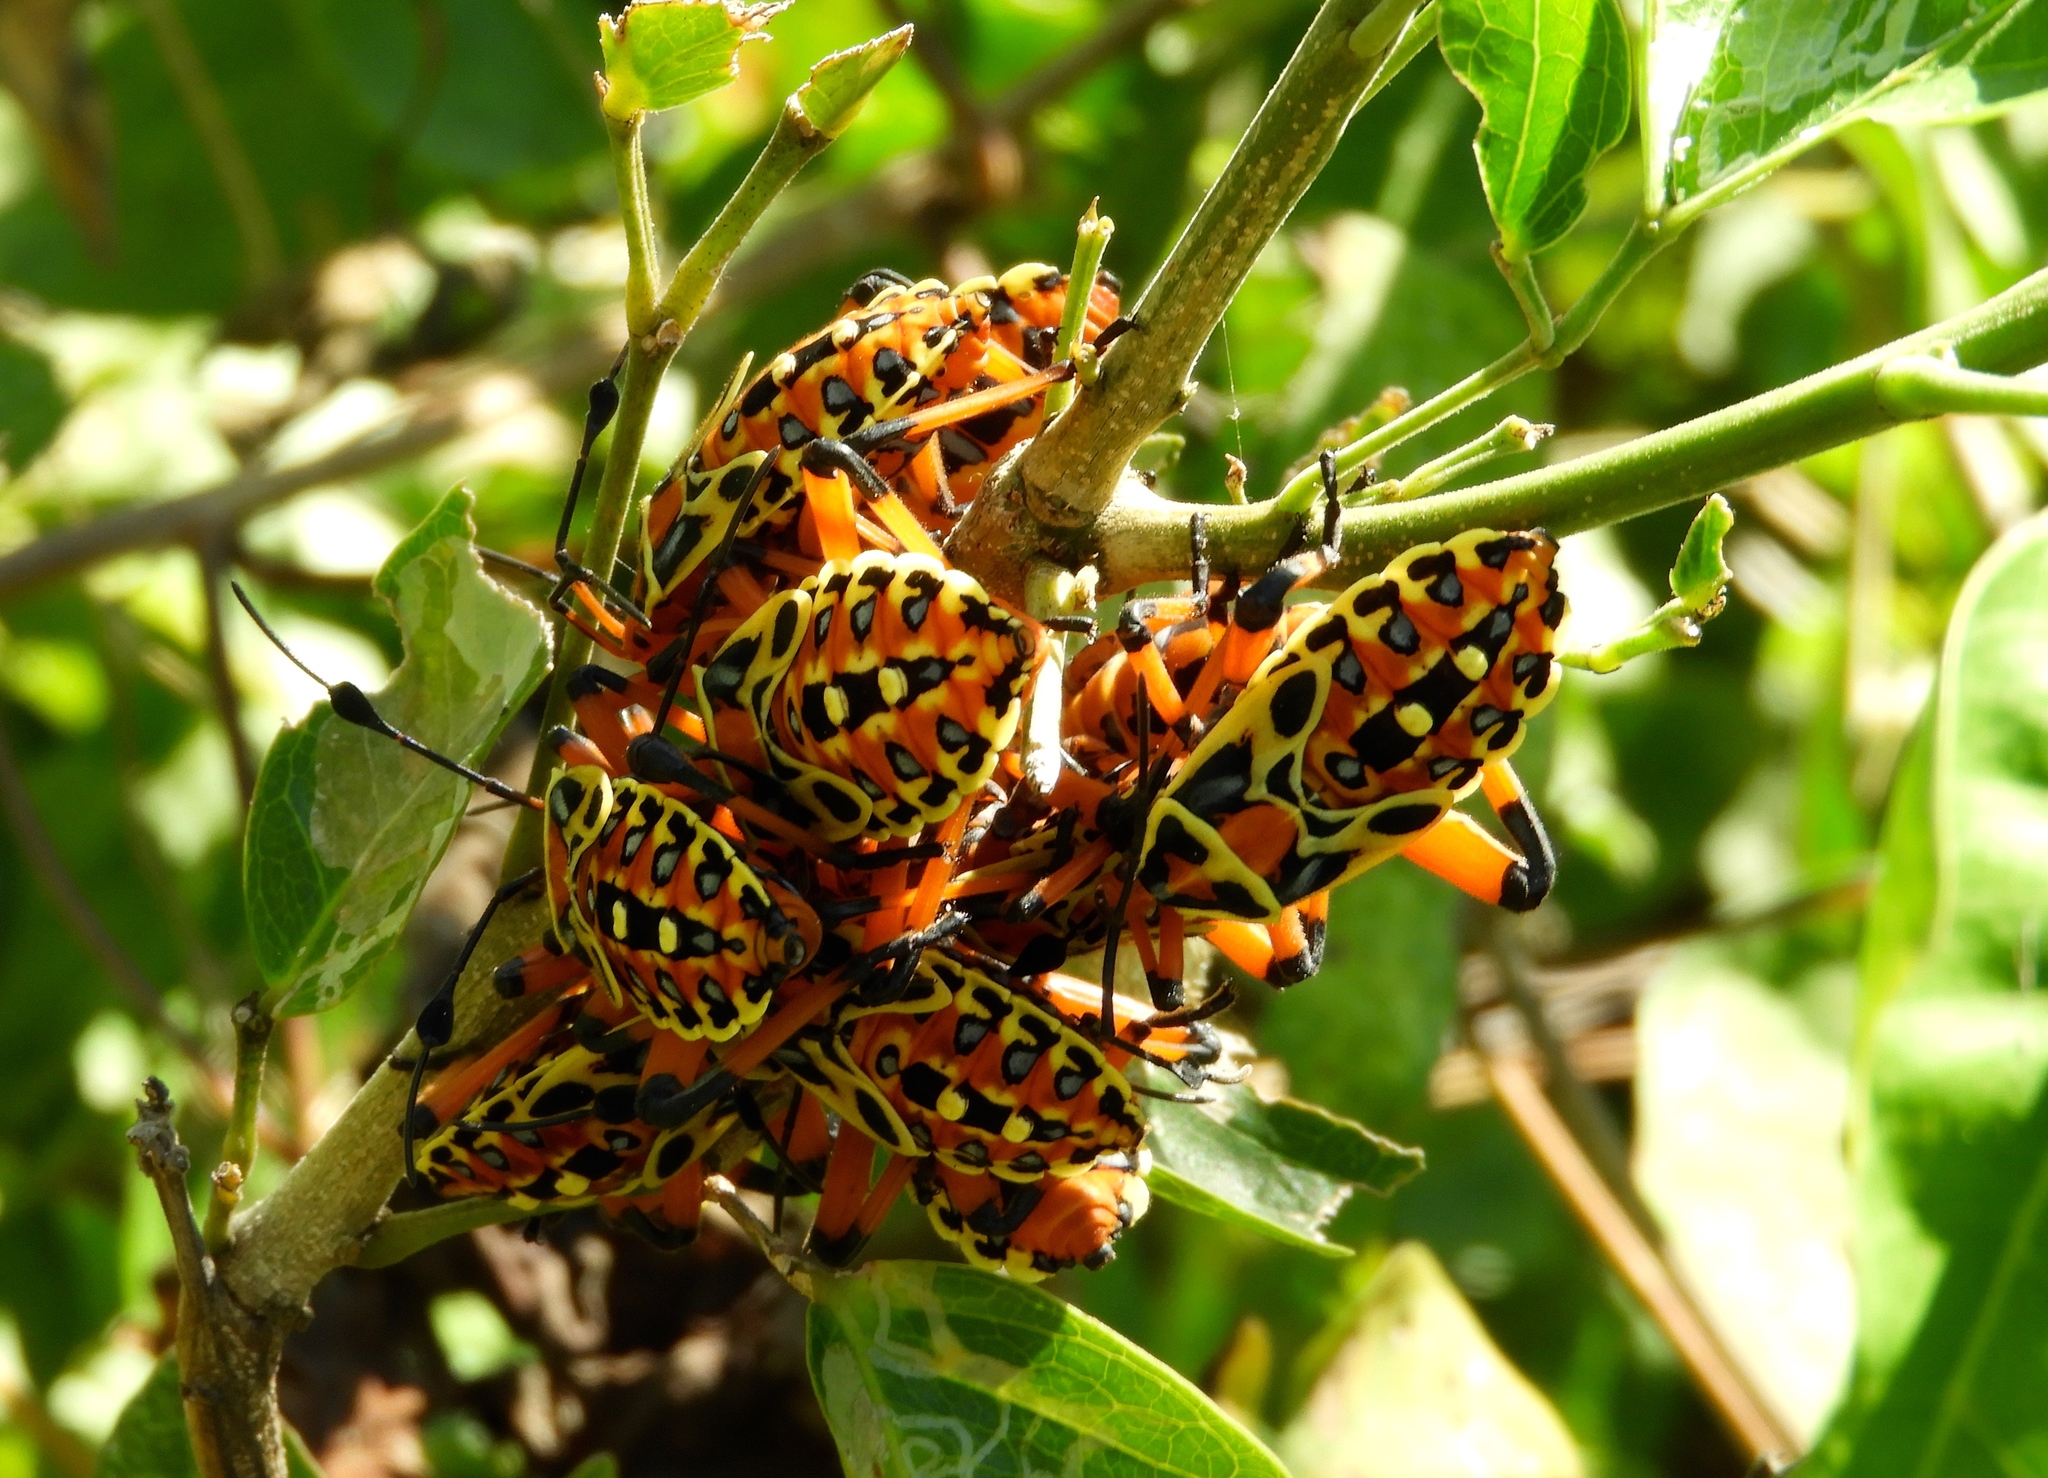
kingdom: Animalia
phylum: Arthropoda
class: Insecta
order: Hemiptera
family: Coreidae
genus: Pachylis
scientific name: Pachylis nervosus
